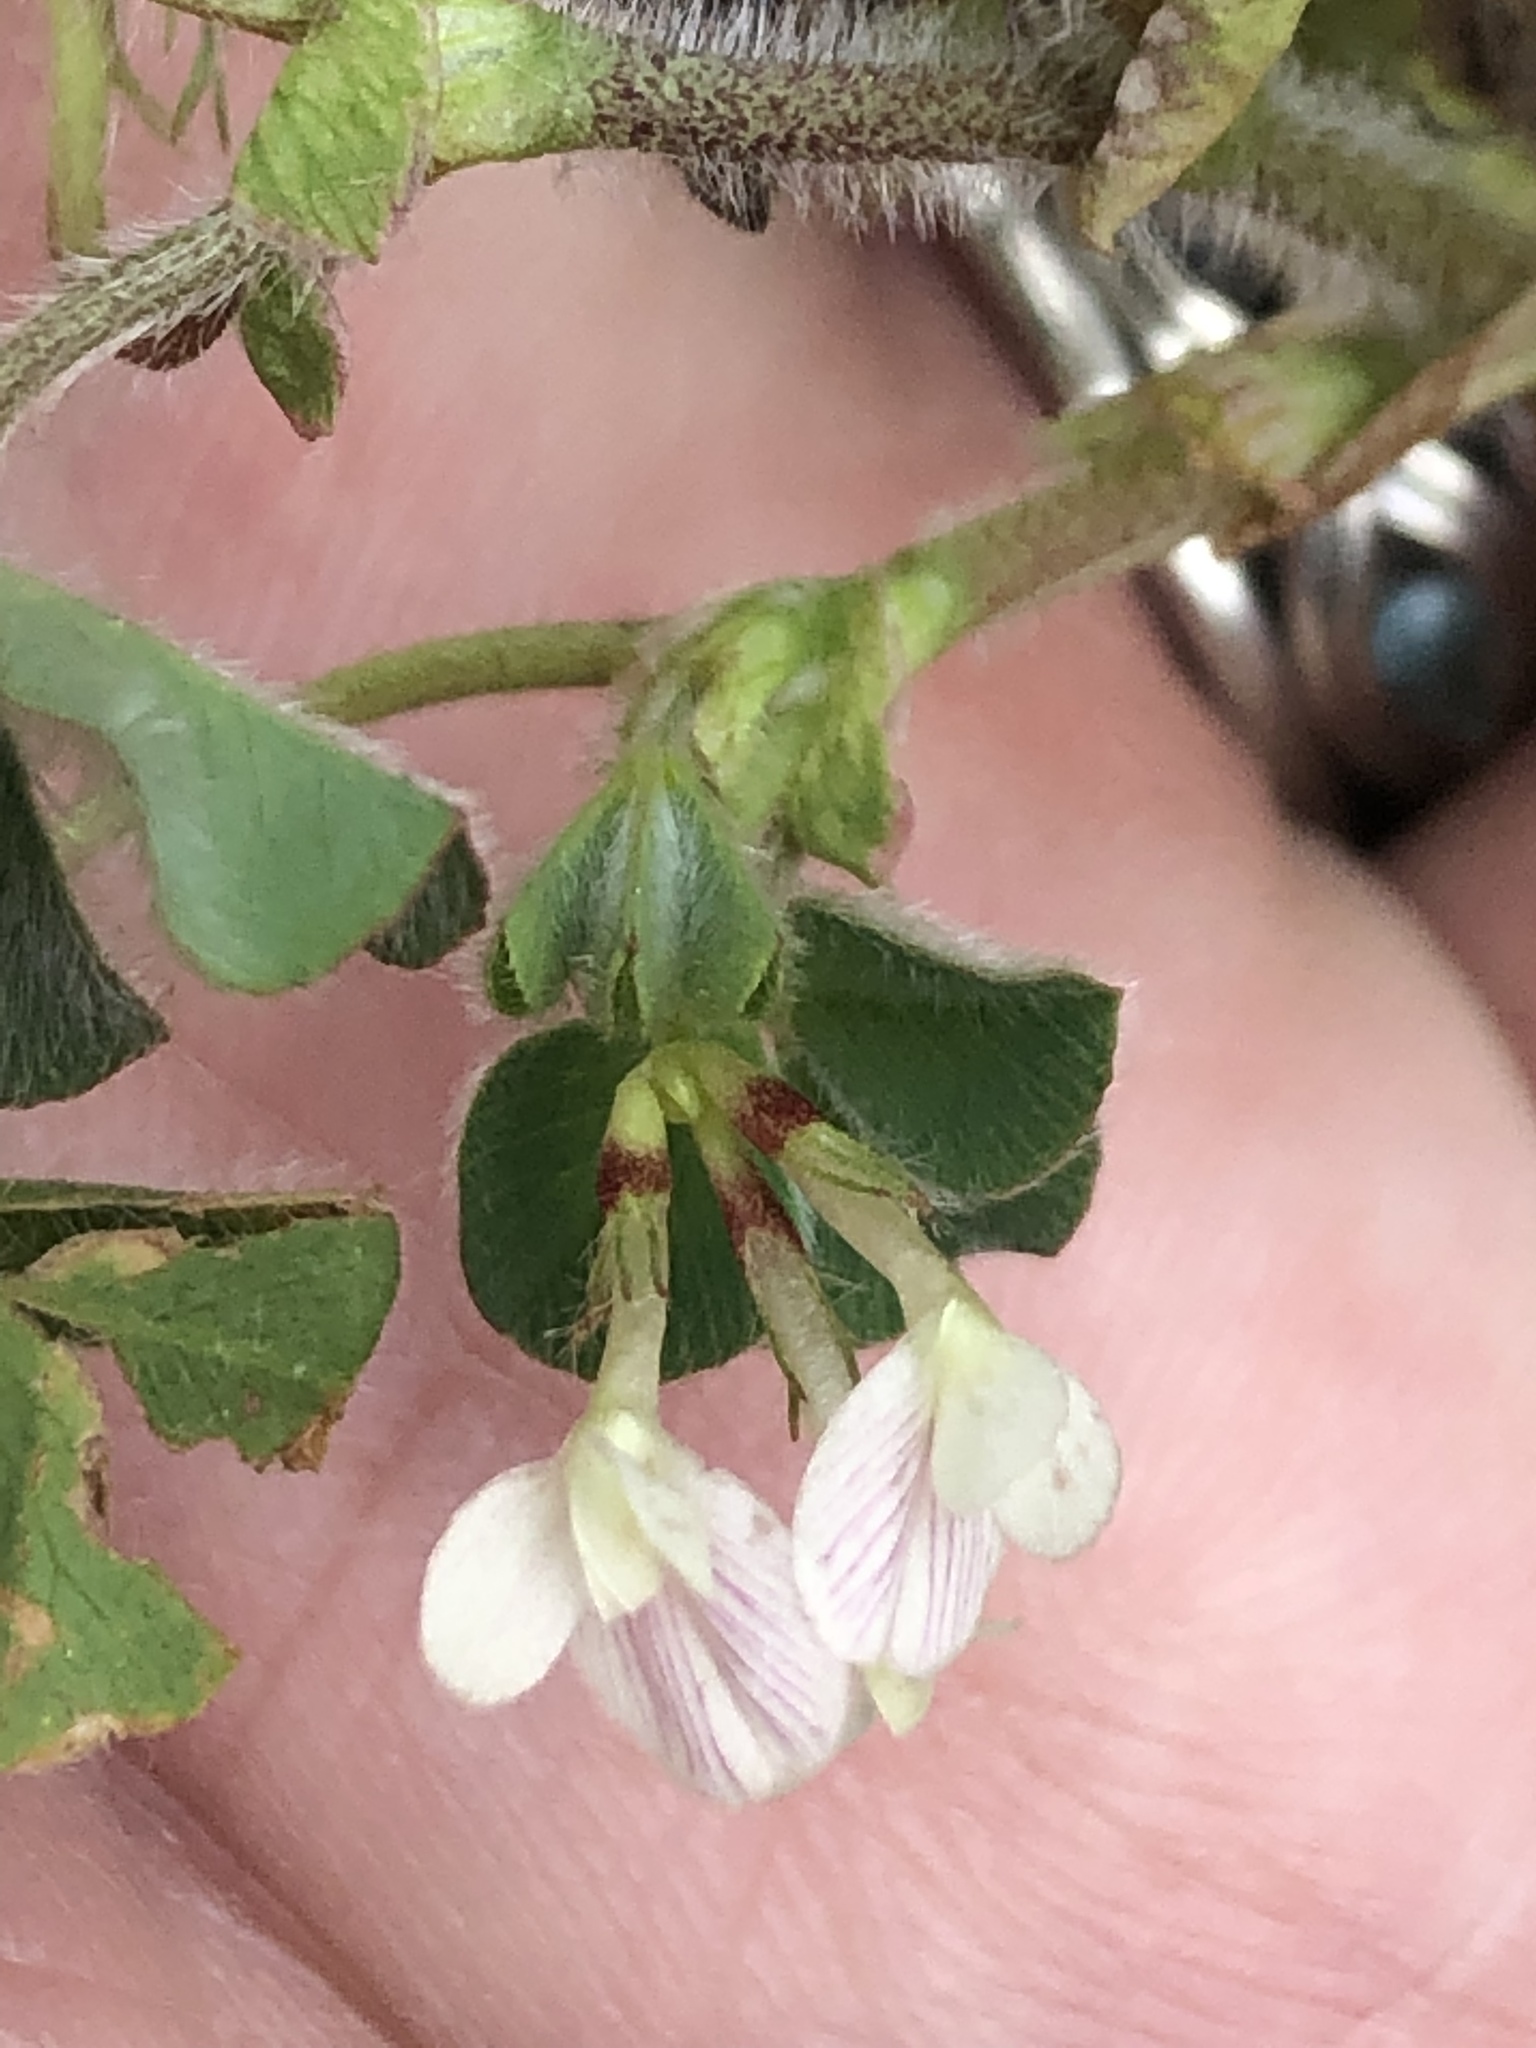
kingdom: Plantae
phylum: Tracheophyta
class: Magnoliopsida
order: Fabales
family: Fabaceae
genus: Trifolium
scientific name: Trifolium subterraneum
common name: Subterranean clover
